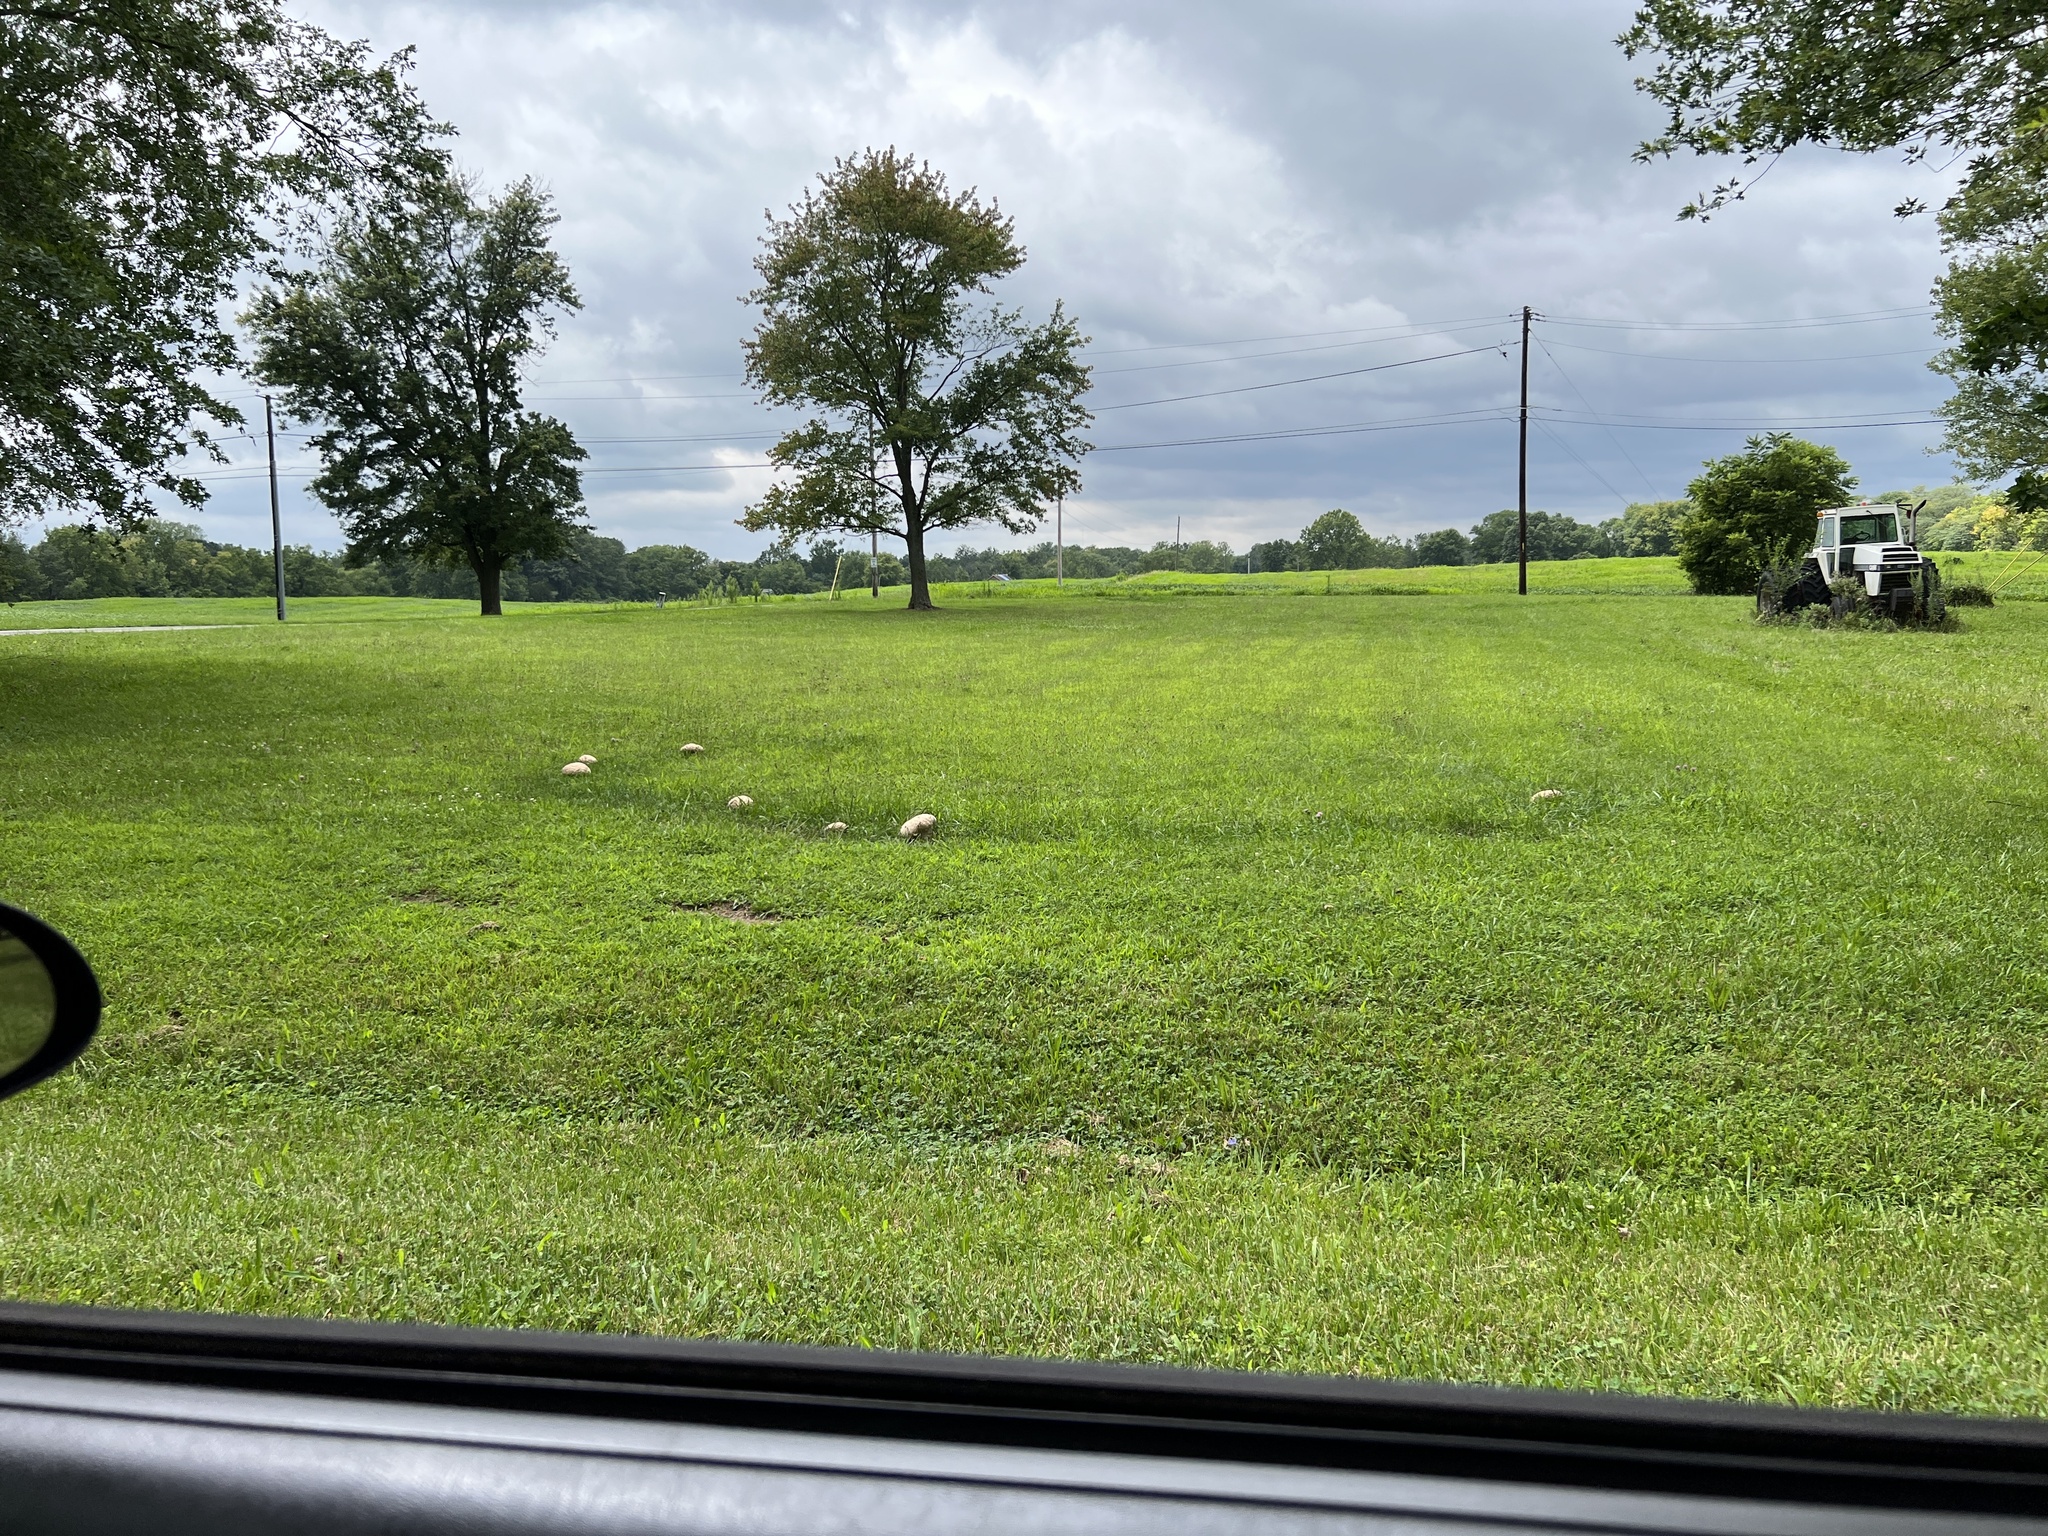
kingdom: Fungi
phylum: Basidiomycota
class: Agaricomycetes
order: Agaricales
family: Lycoperdaceae
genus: Calvatia
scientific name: Calvatia cyathiformis
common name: Purple-spored puffball
